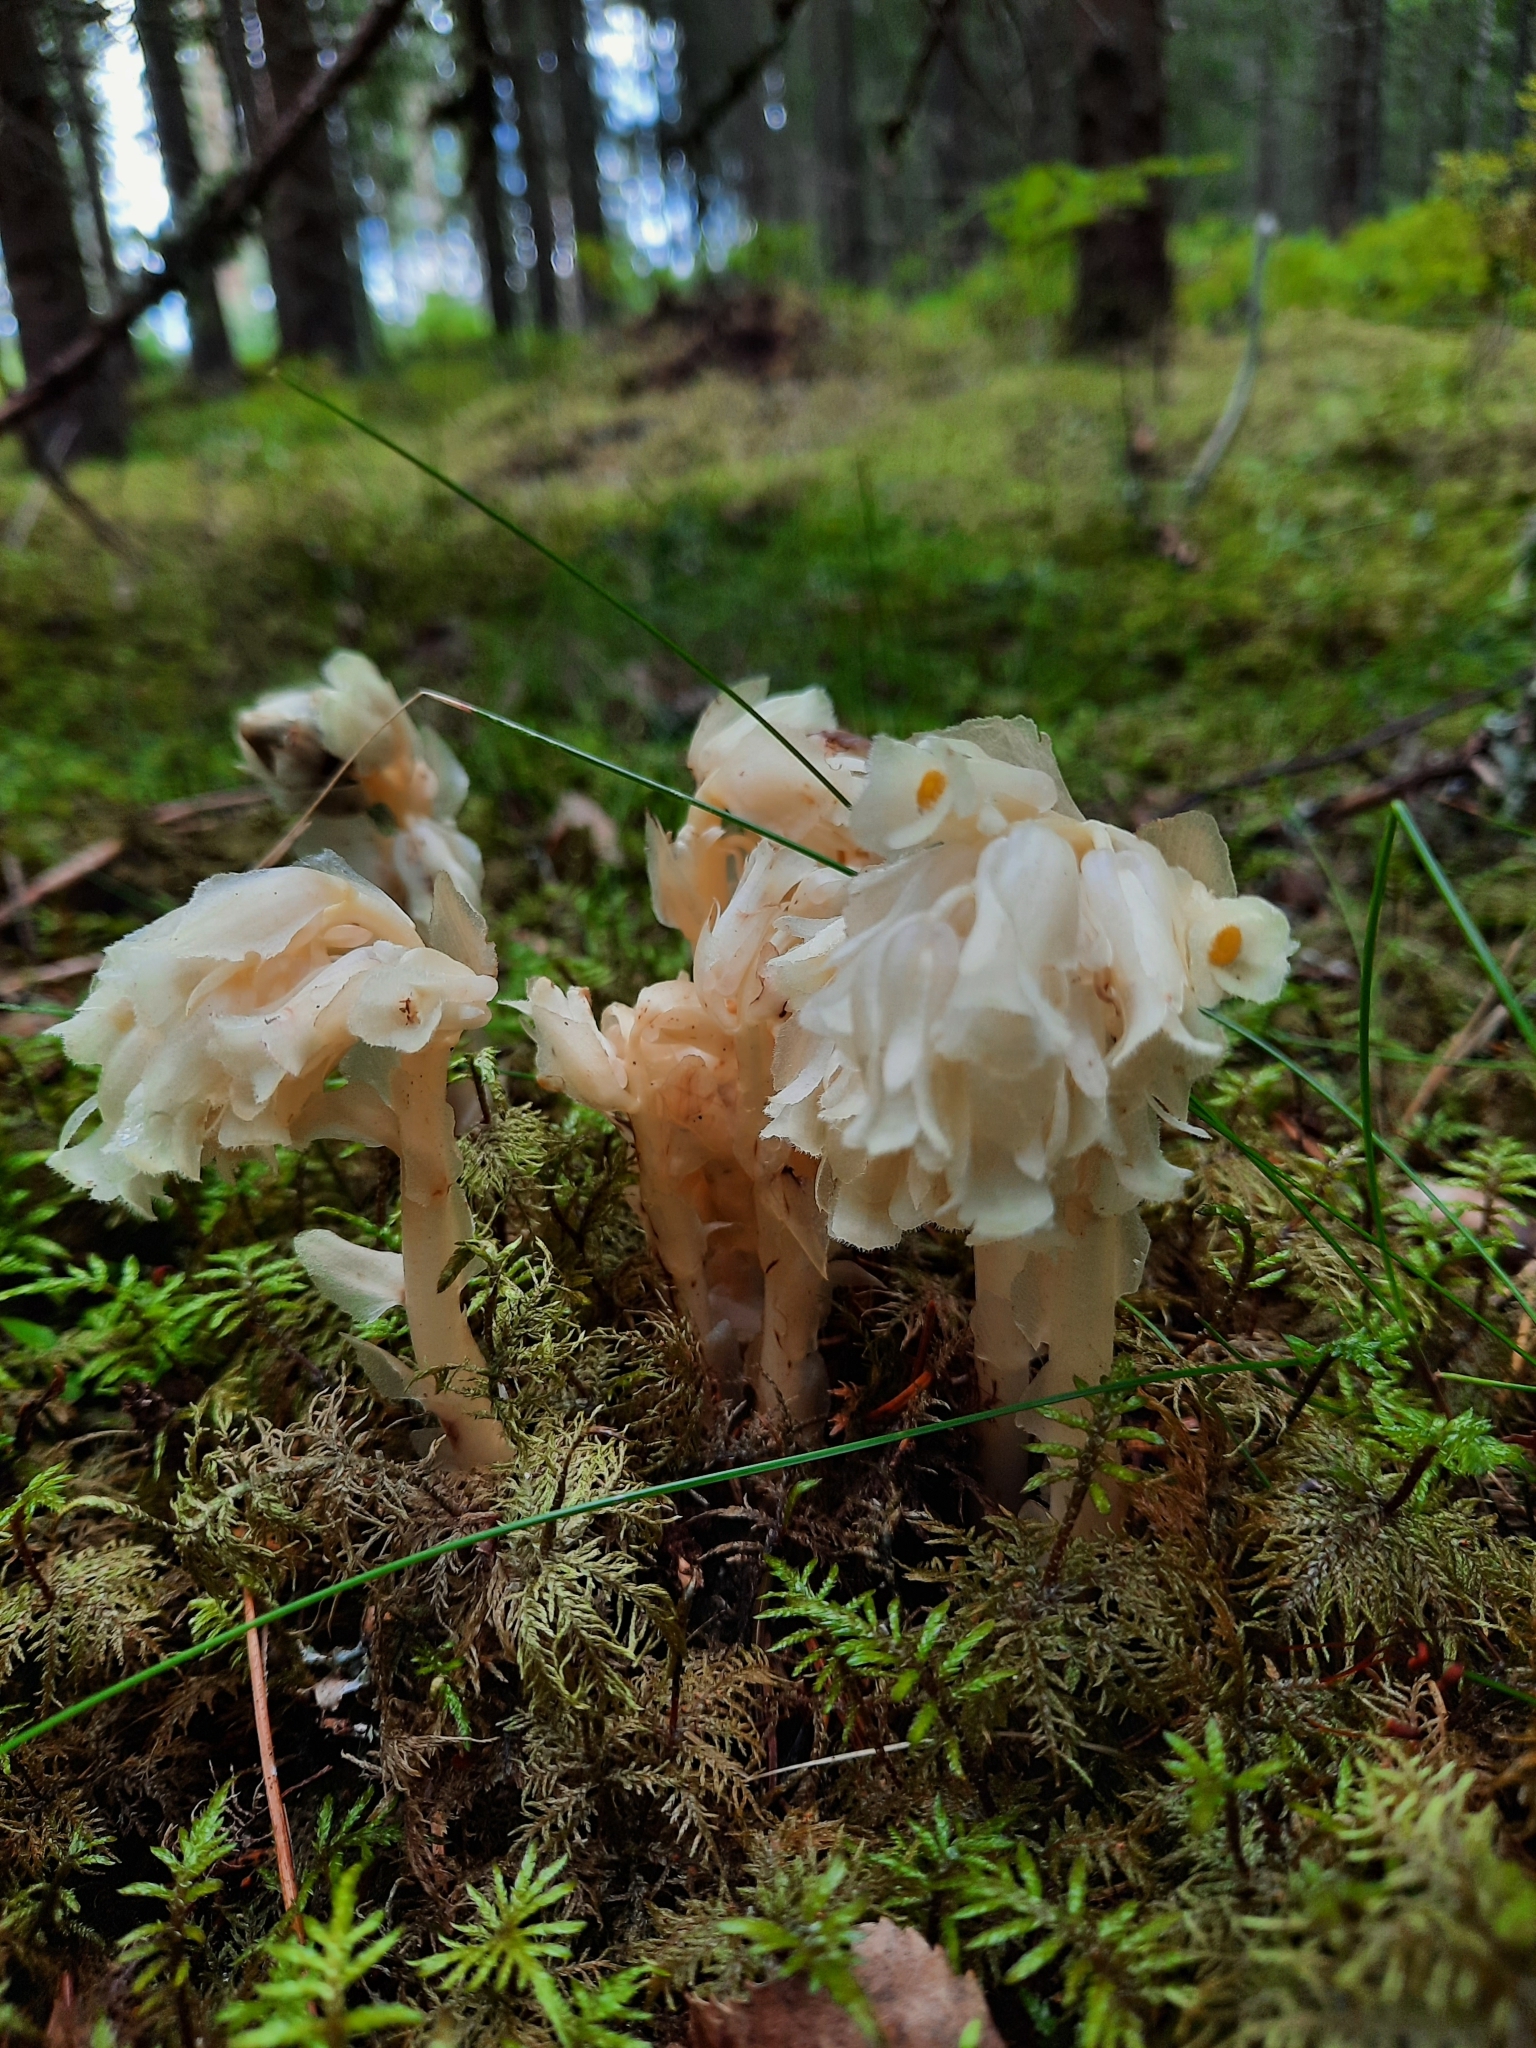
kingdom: Plantae
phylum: Tracheophyta
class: Magnoliopsida
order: Ericales
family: Ericaceae
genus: Hypopitys
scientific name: Hypopitys monotropa
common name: Yellow bird's-nest
